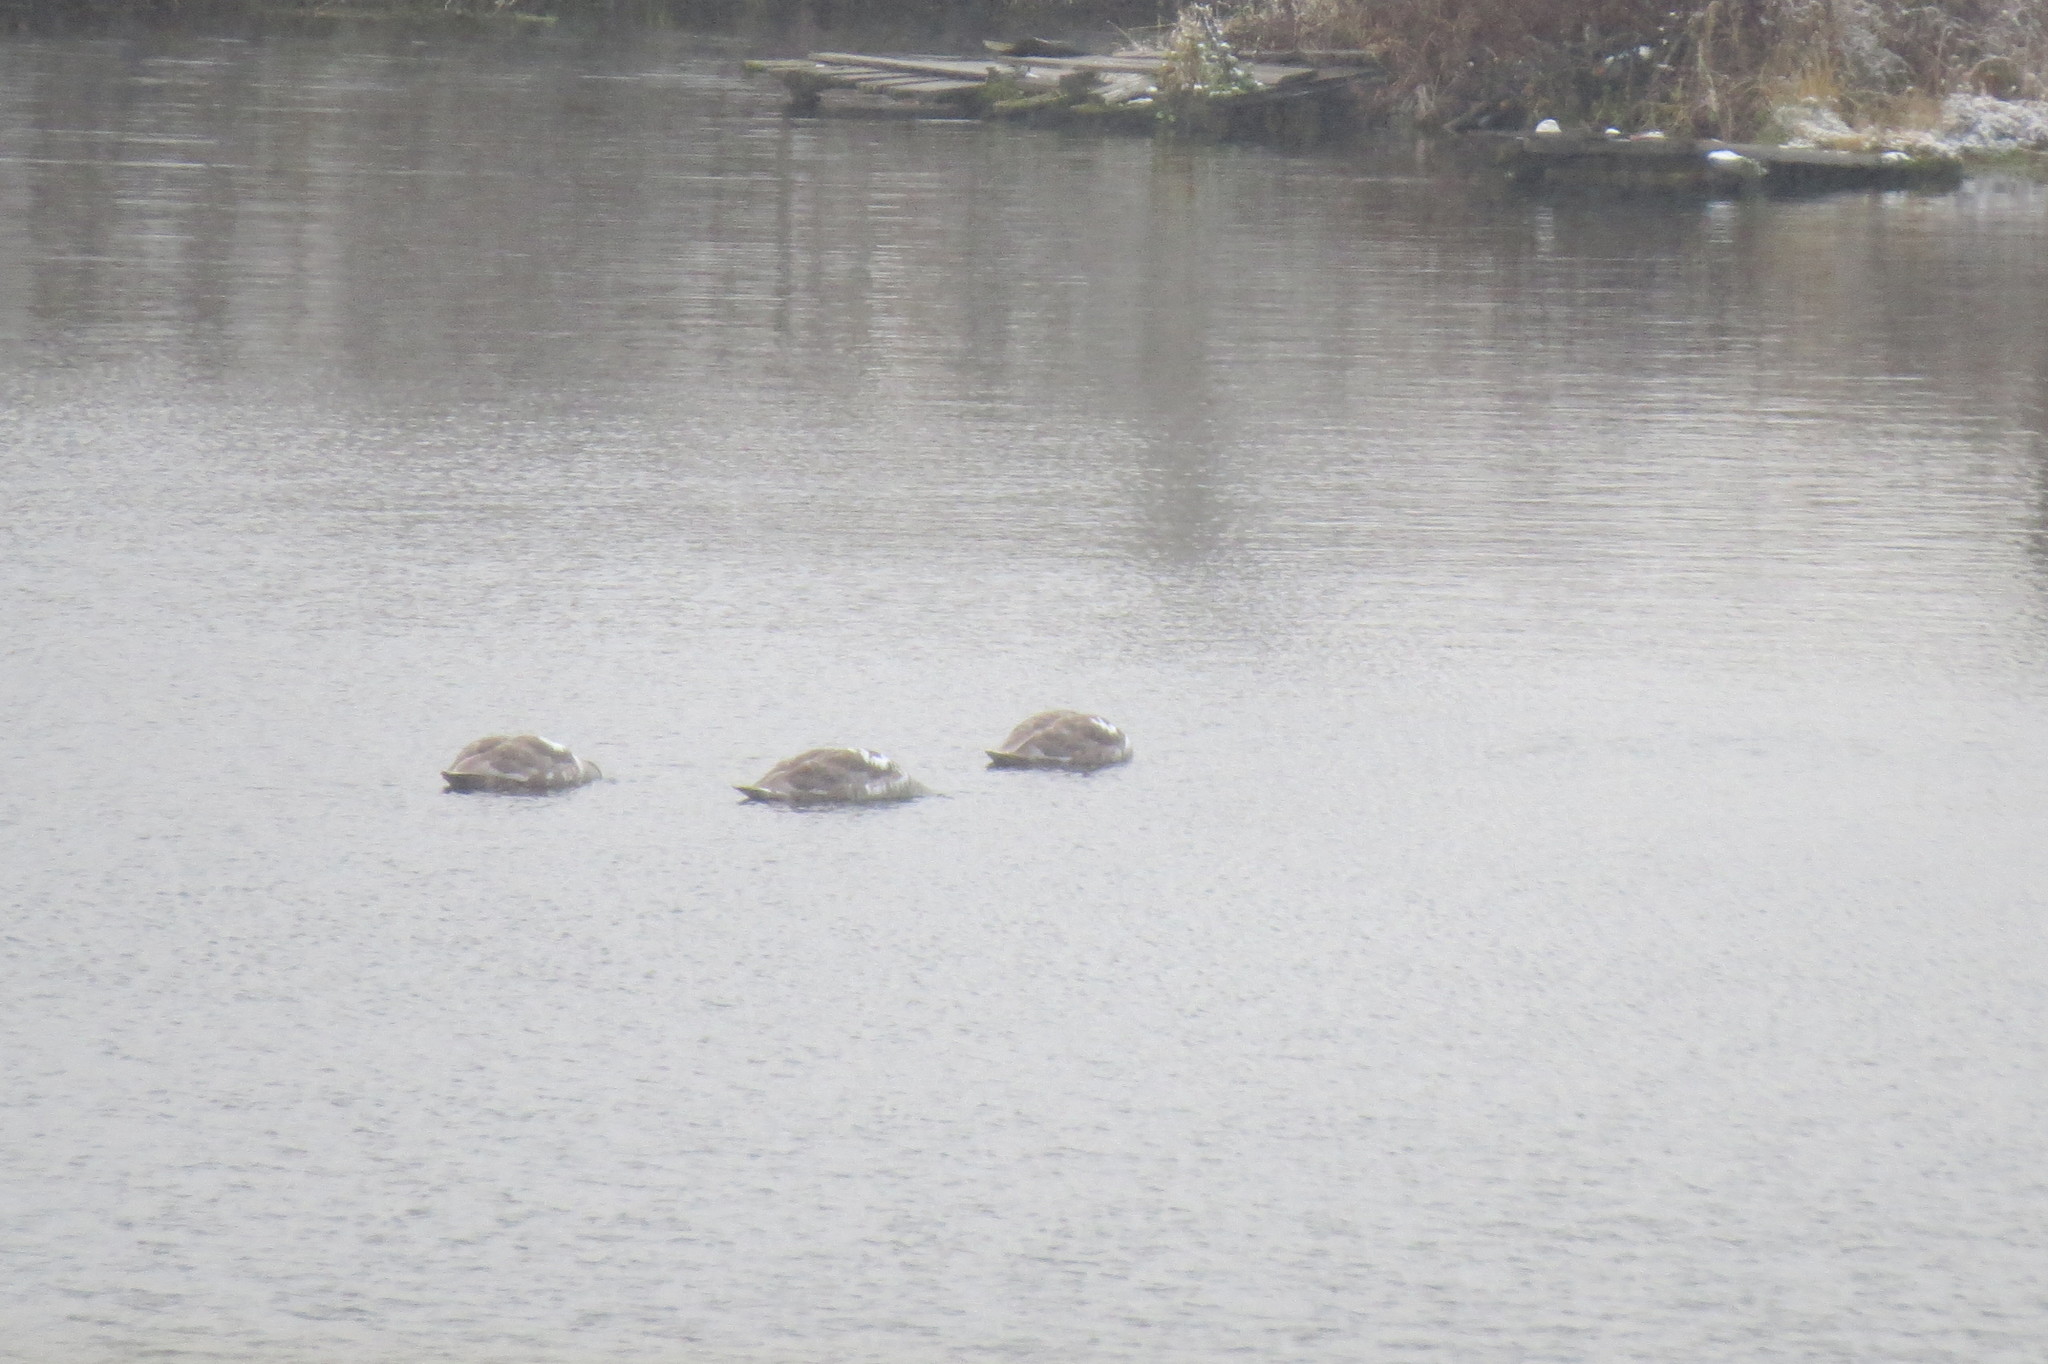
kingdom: Animalia
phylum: Chordata
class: Aves
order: Anseriformes
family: Anatidae
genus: Cygnus
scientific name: Cygnus olor
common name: Mute swan
